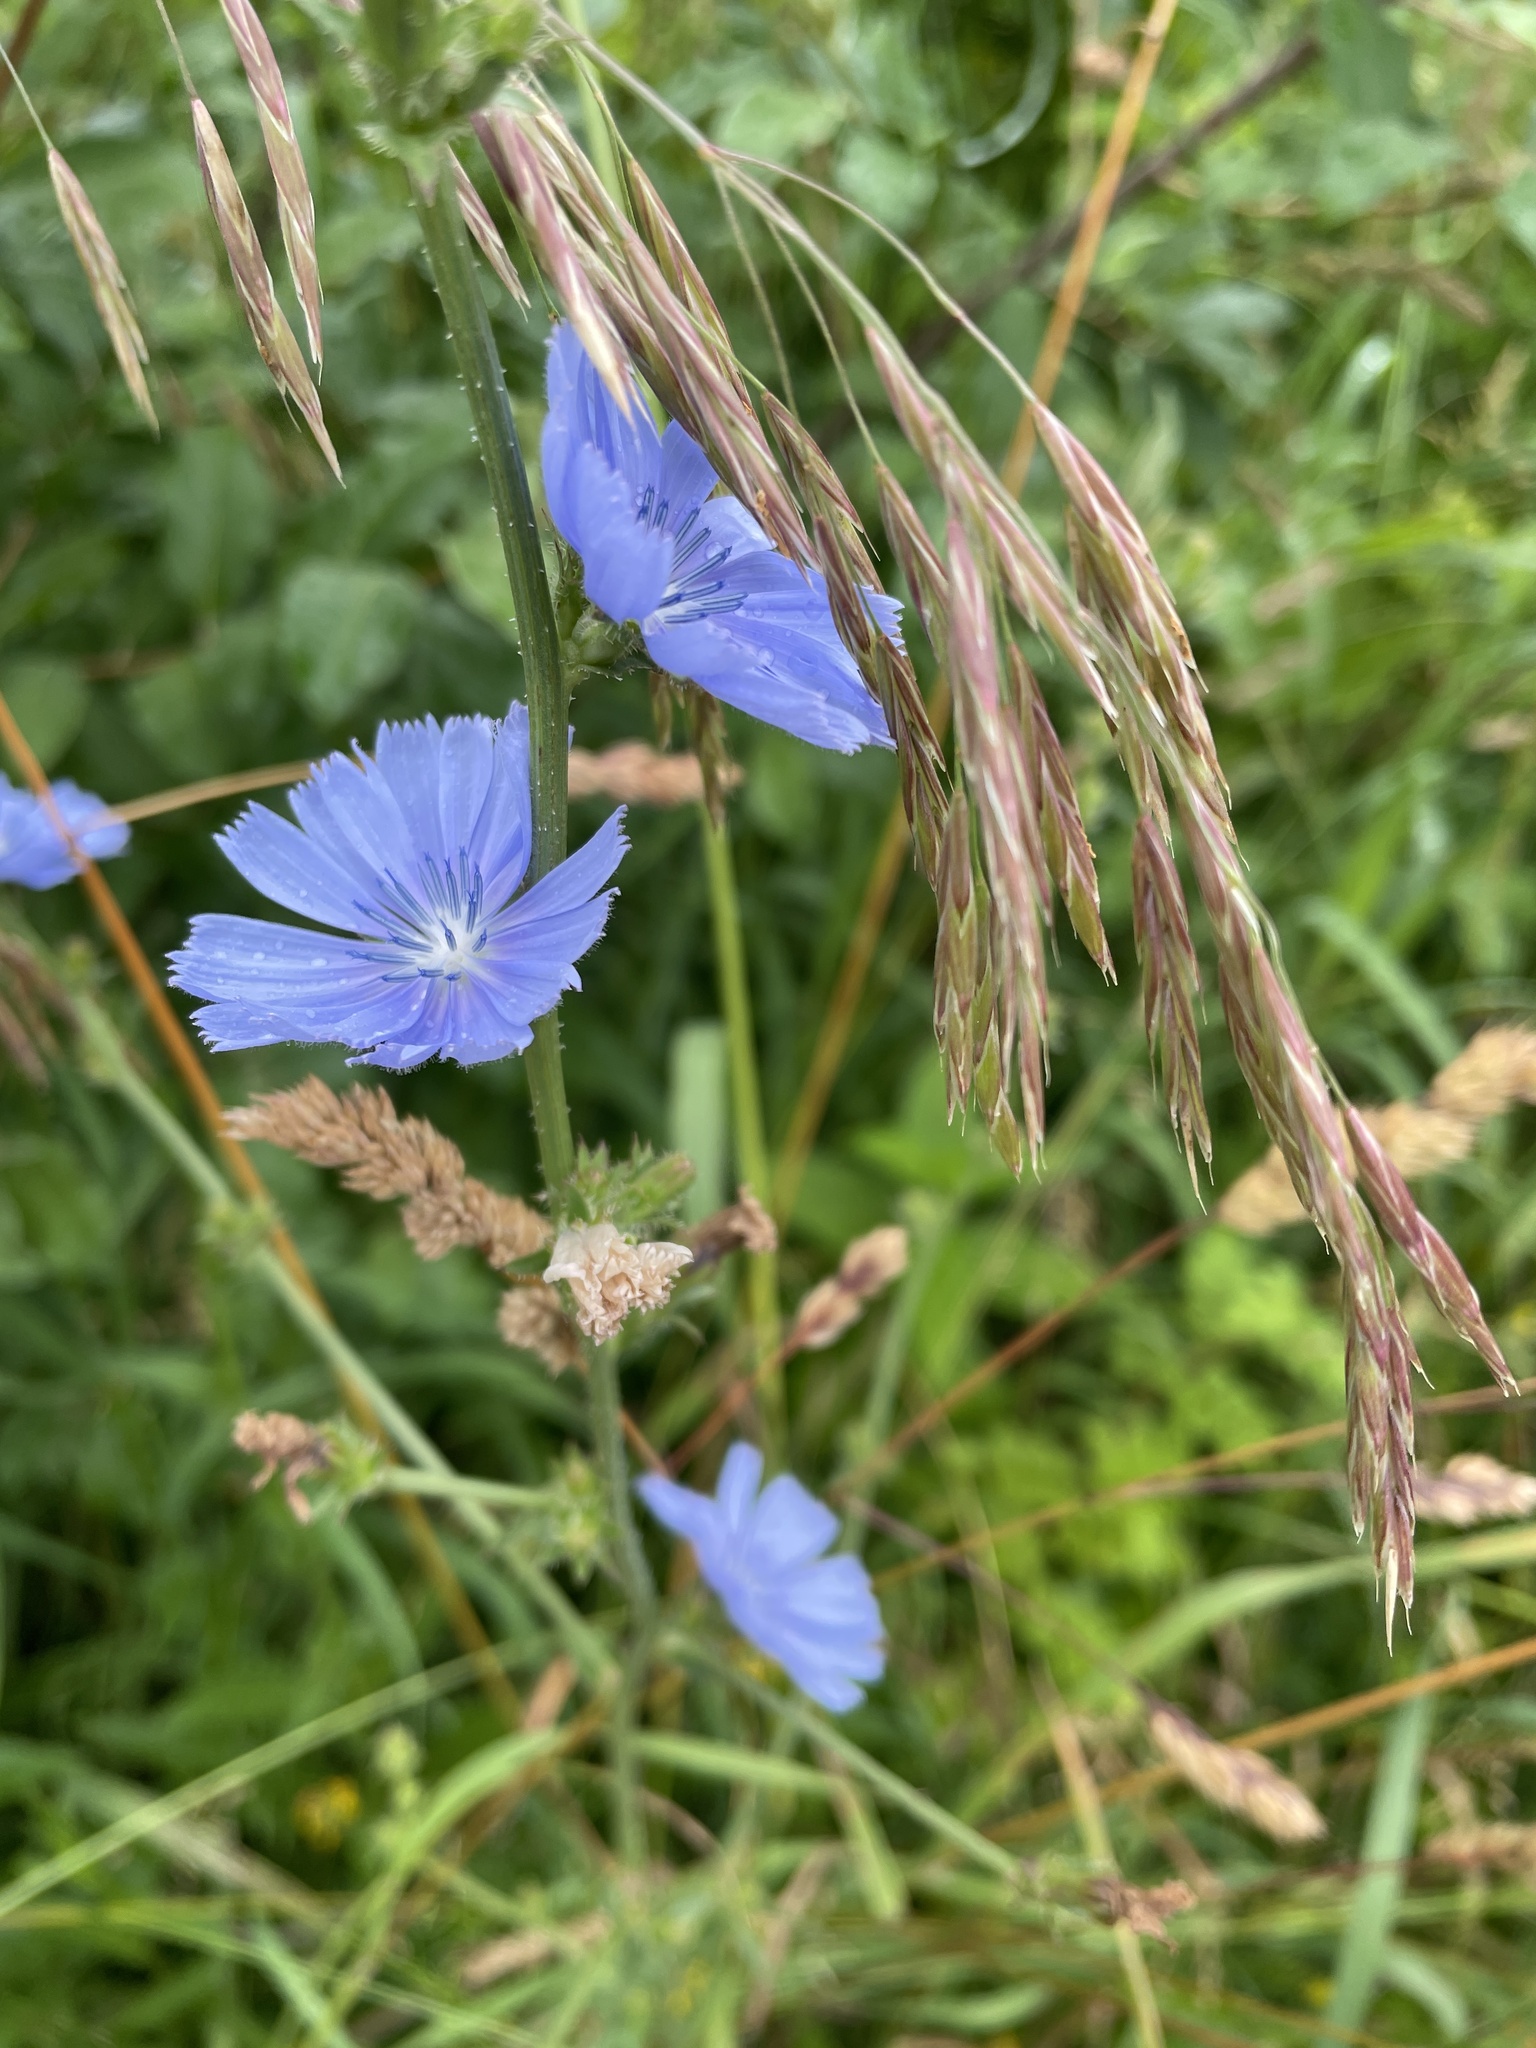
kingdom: Plantae
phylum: Tracheophyta
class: Magnoliopsida
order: Asterales
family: Asteraceae
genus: Cichorium
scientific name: Cichorium intybus
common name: Chicory
